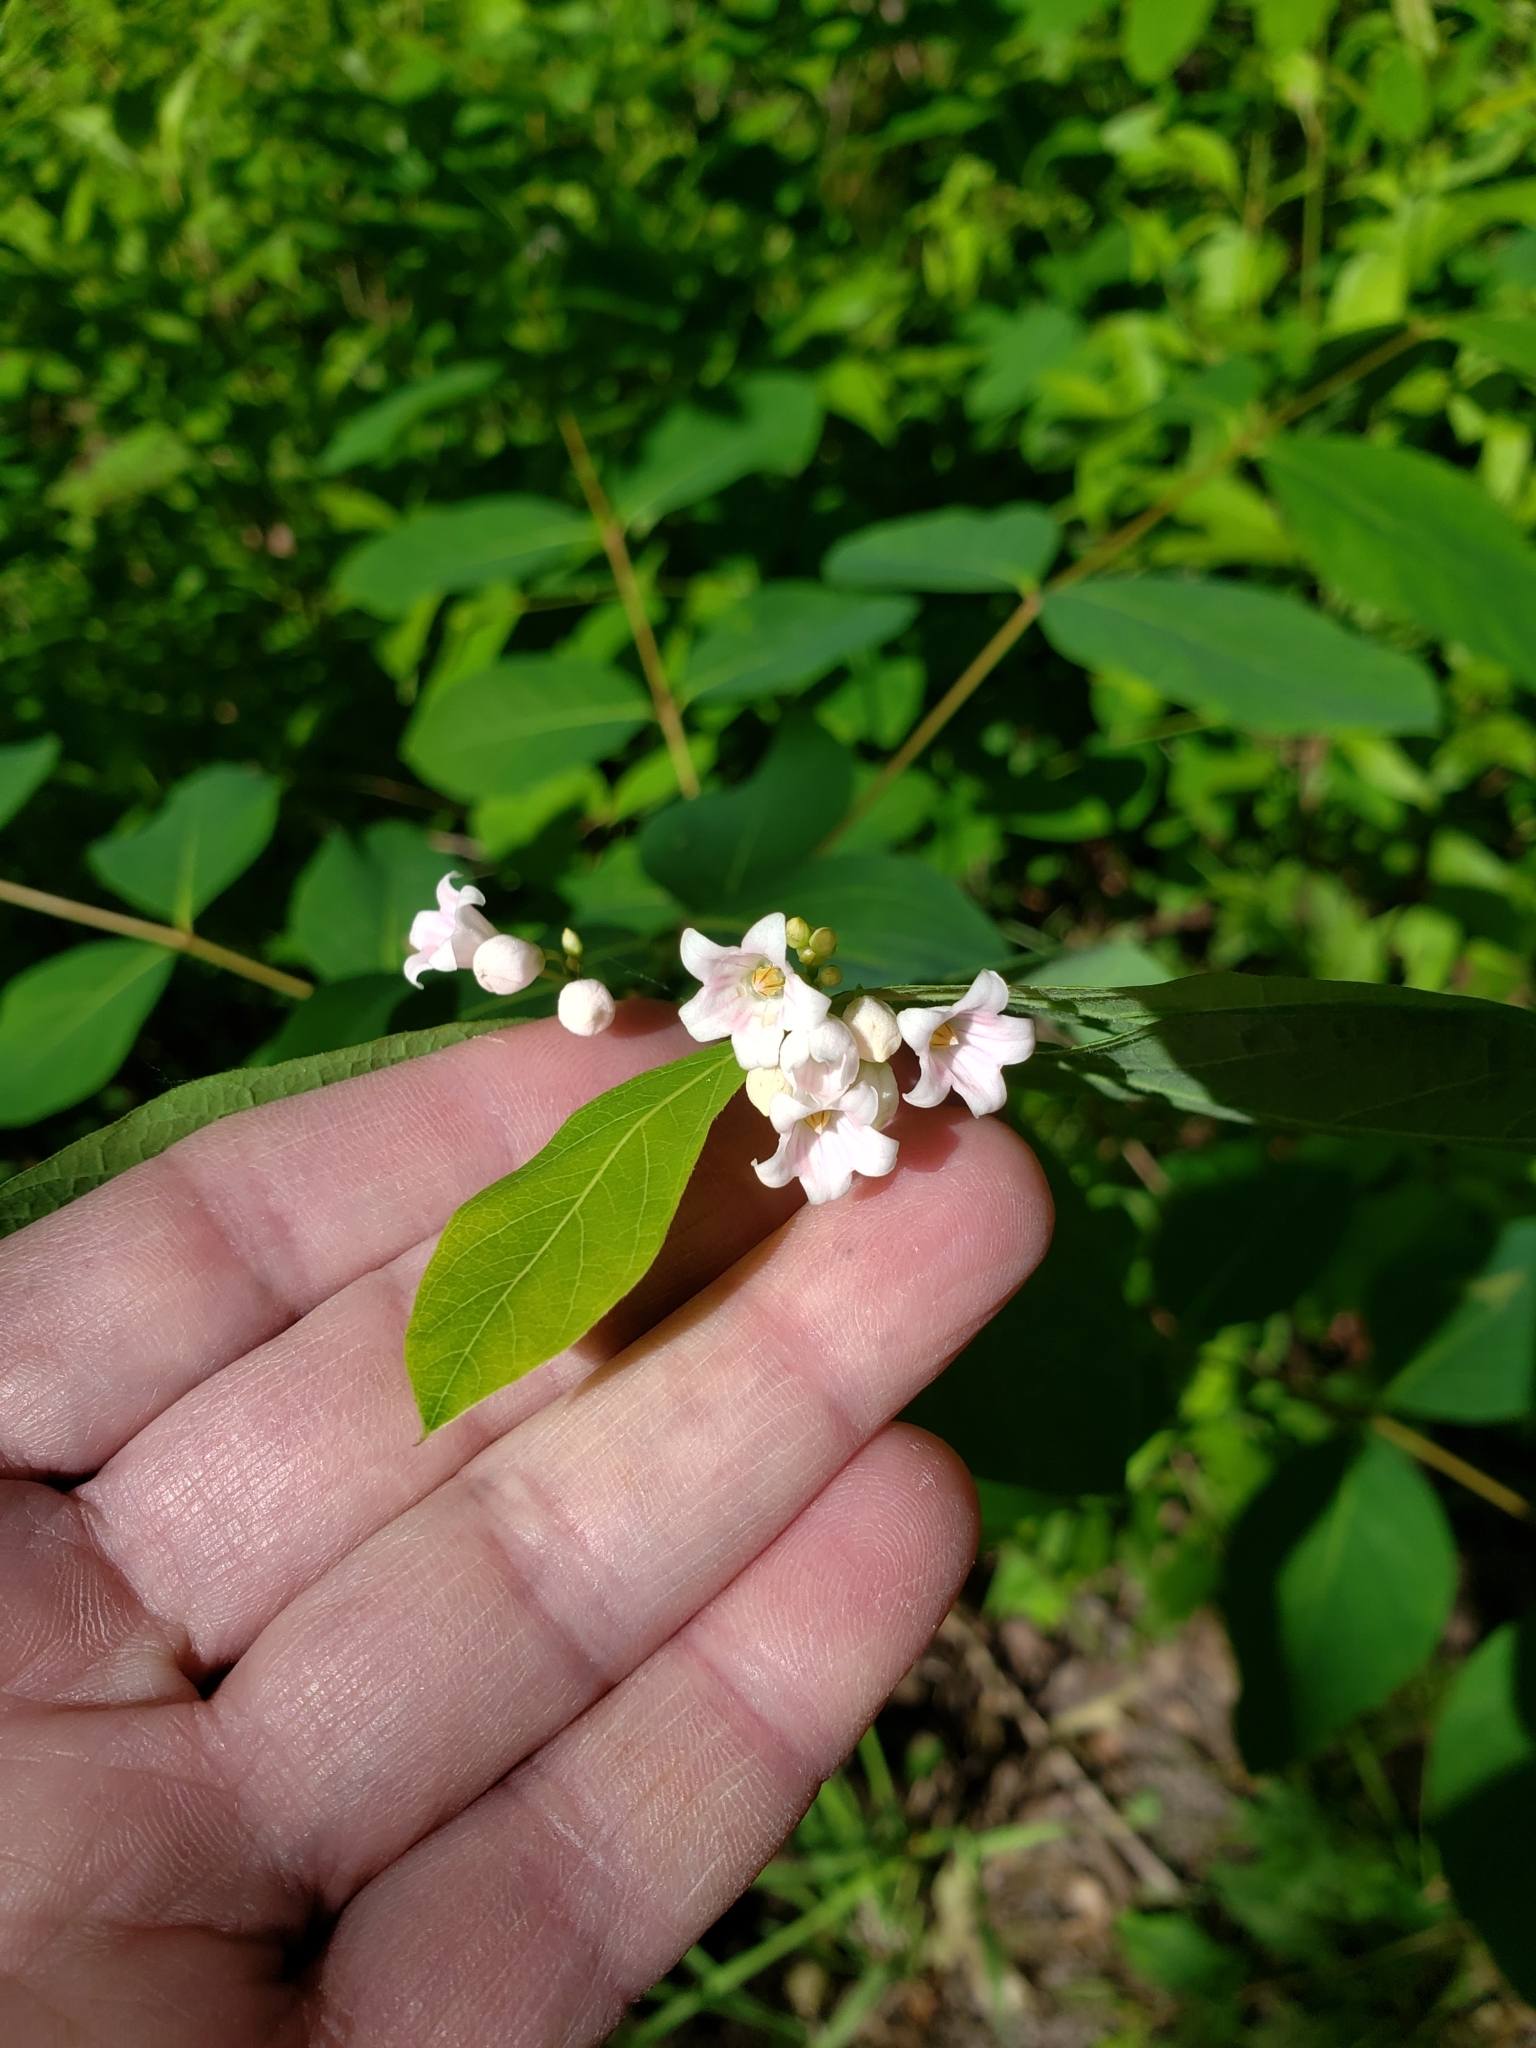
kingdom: Plantae
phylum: Tracheophyta
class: Magnoliopsida
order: Gentianales
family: Apocynaceae
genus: Apocynum
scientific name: Apocynum androsaemifolium
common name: Spreading dogbane
